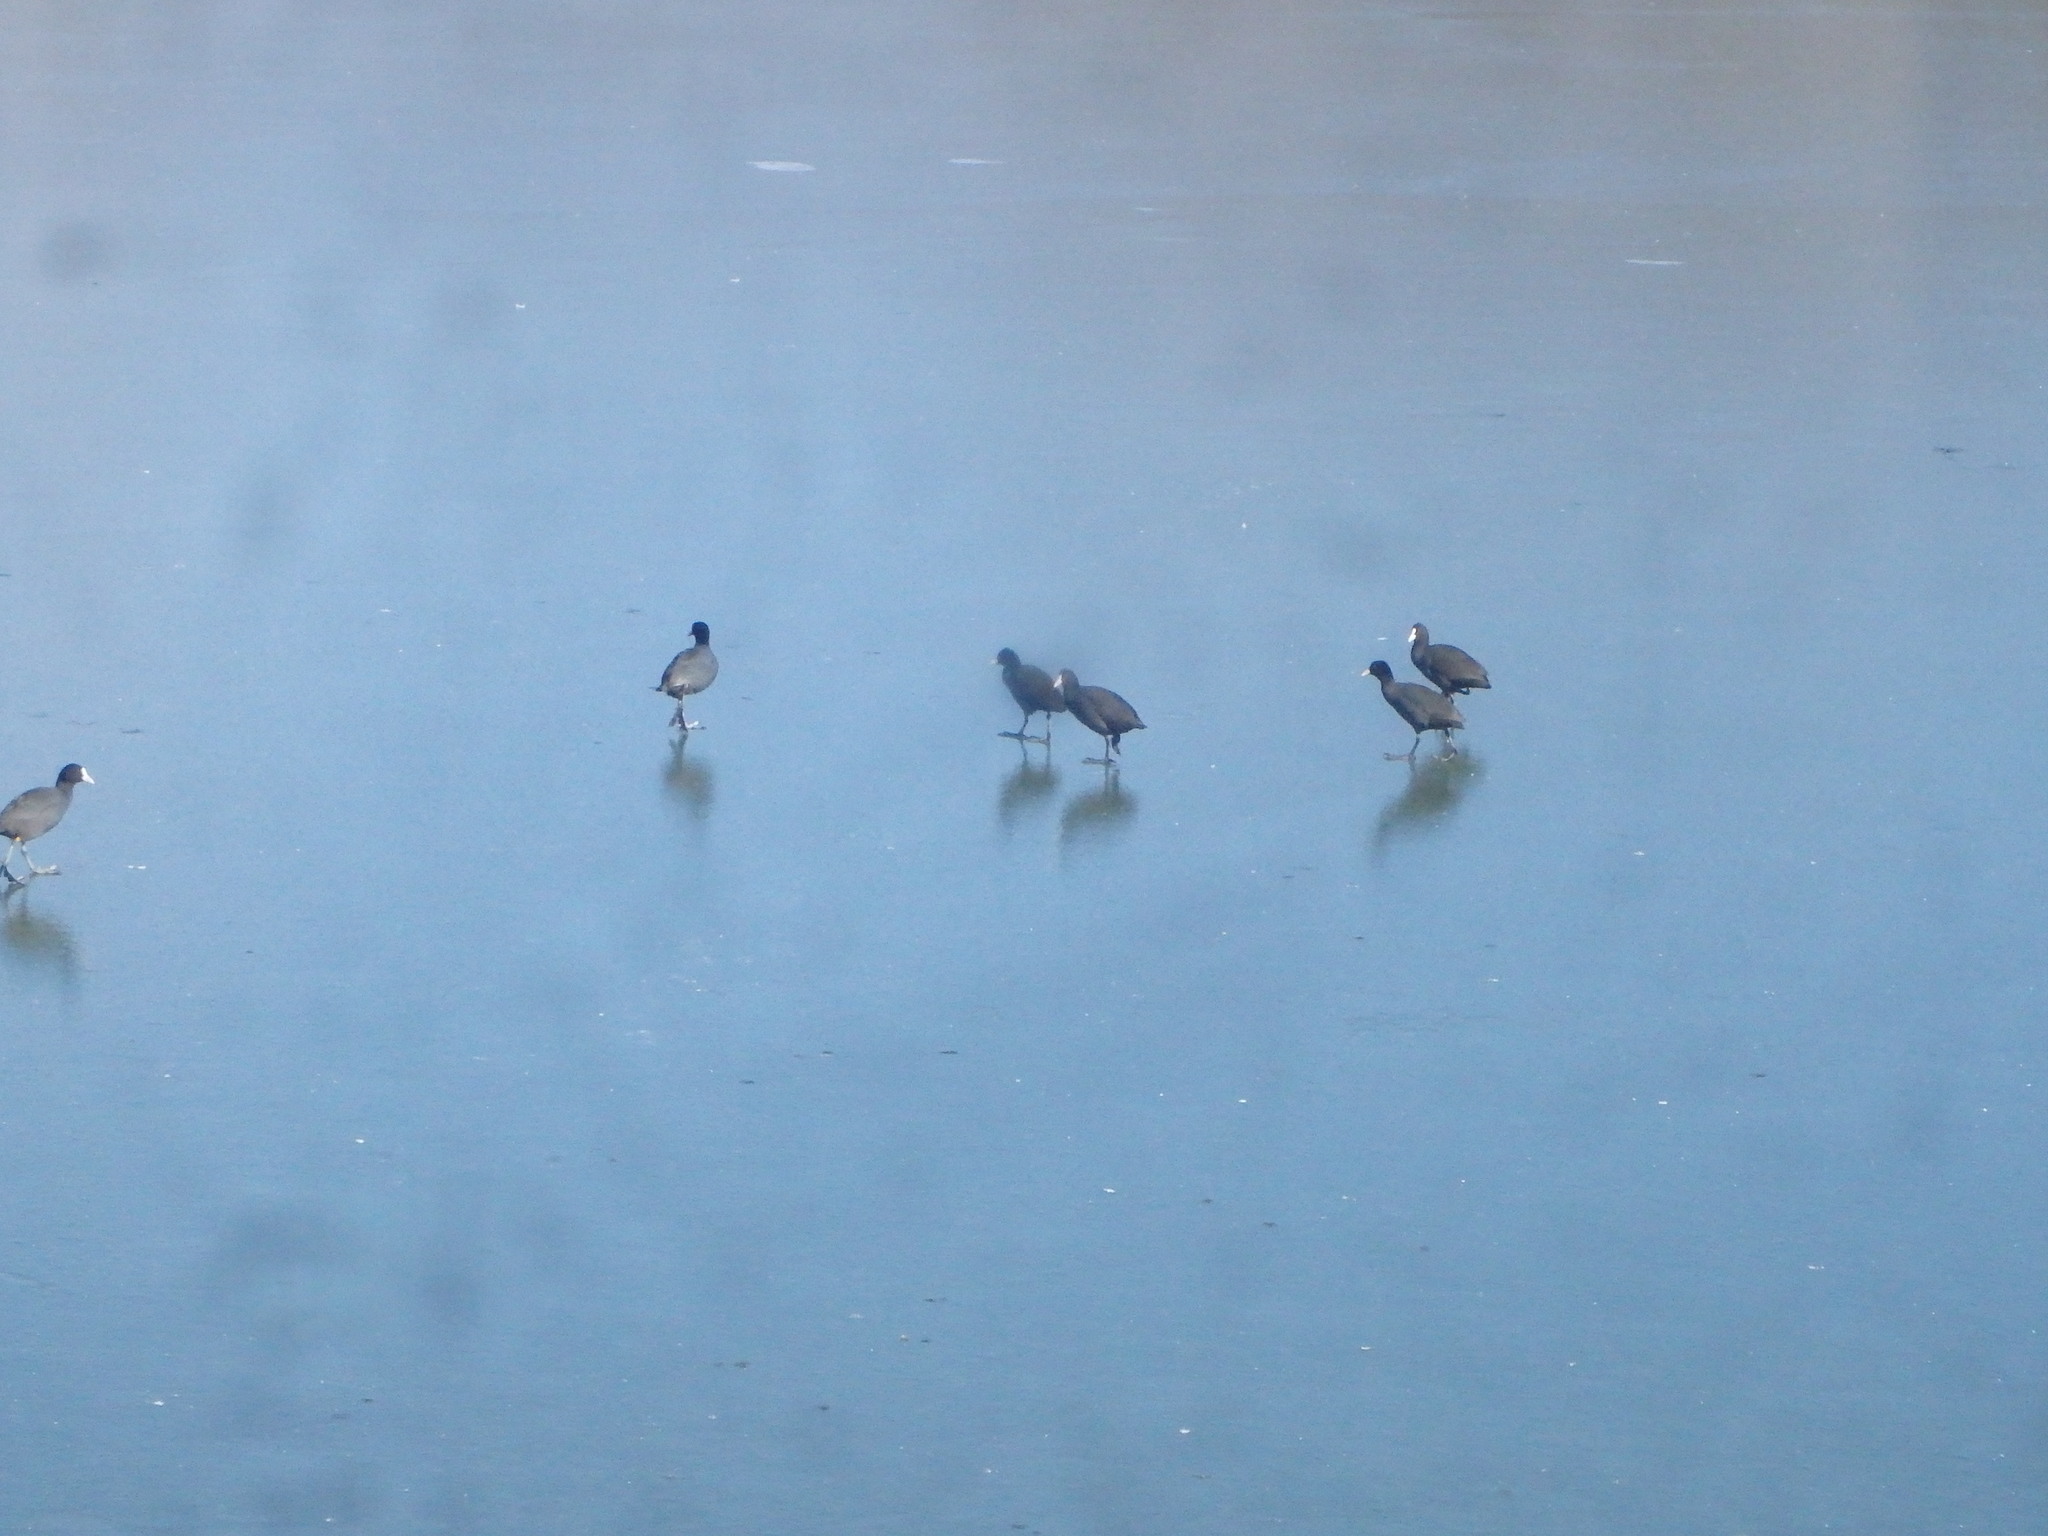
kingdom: Animalia
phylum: Chordata
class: Aves
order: Gruiformes
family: Rallidae
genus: Fulica
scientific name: Fulica atra
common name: Eurasian coot
